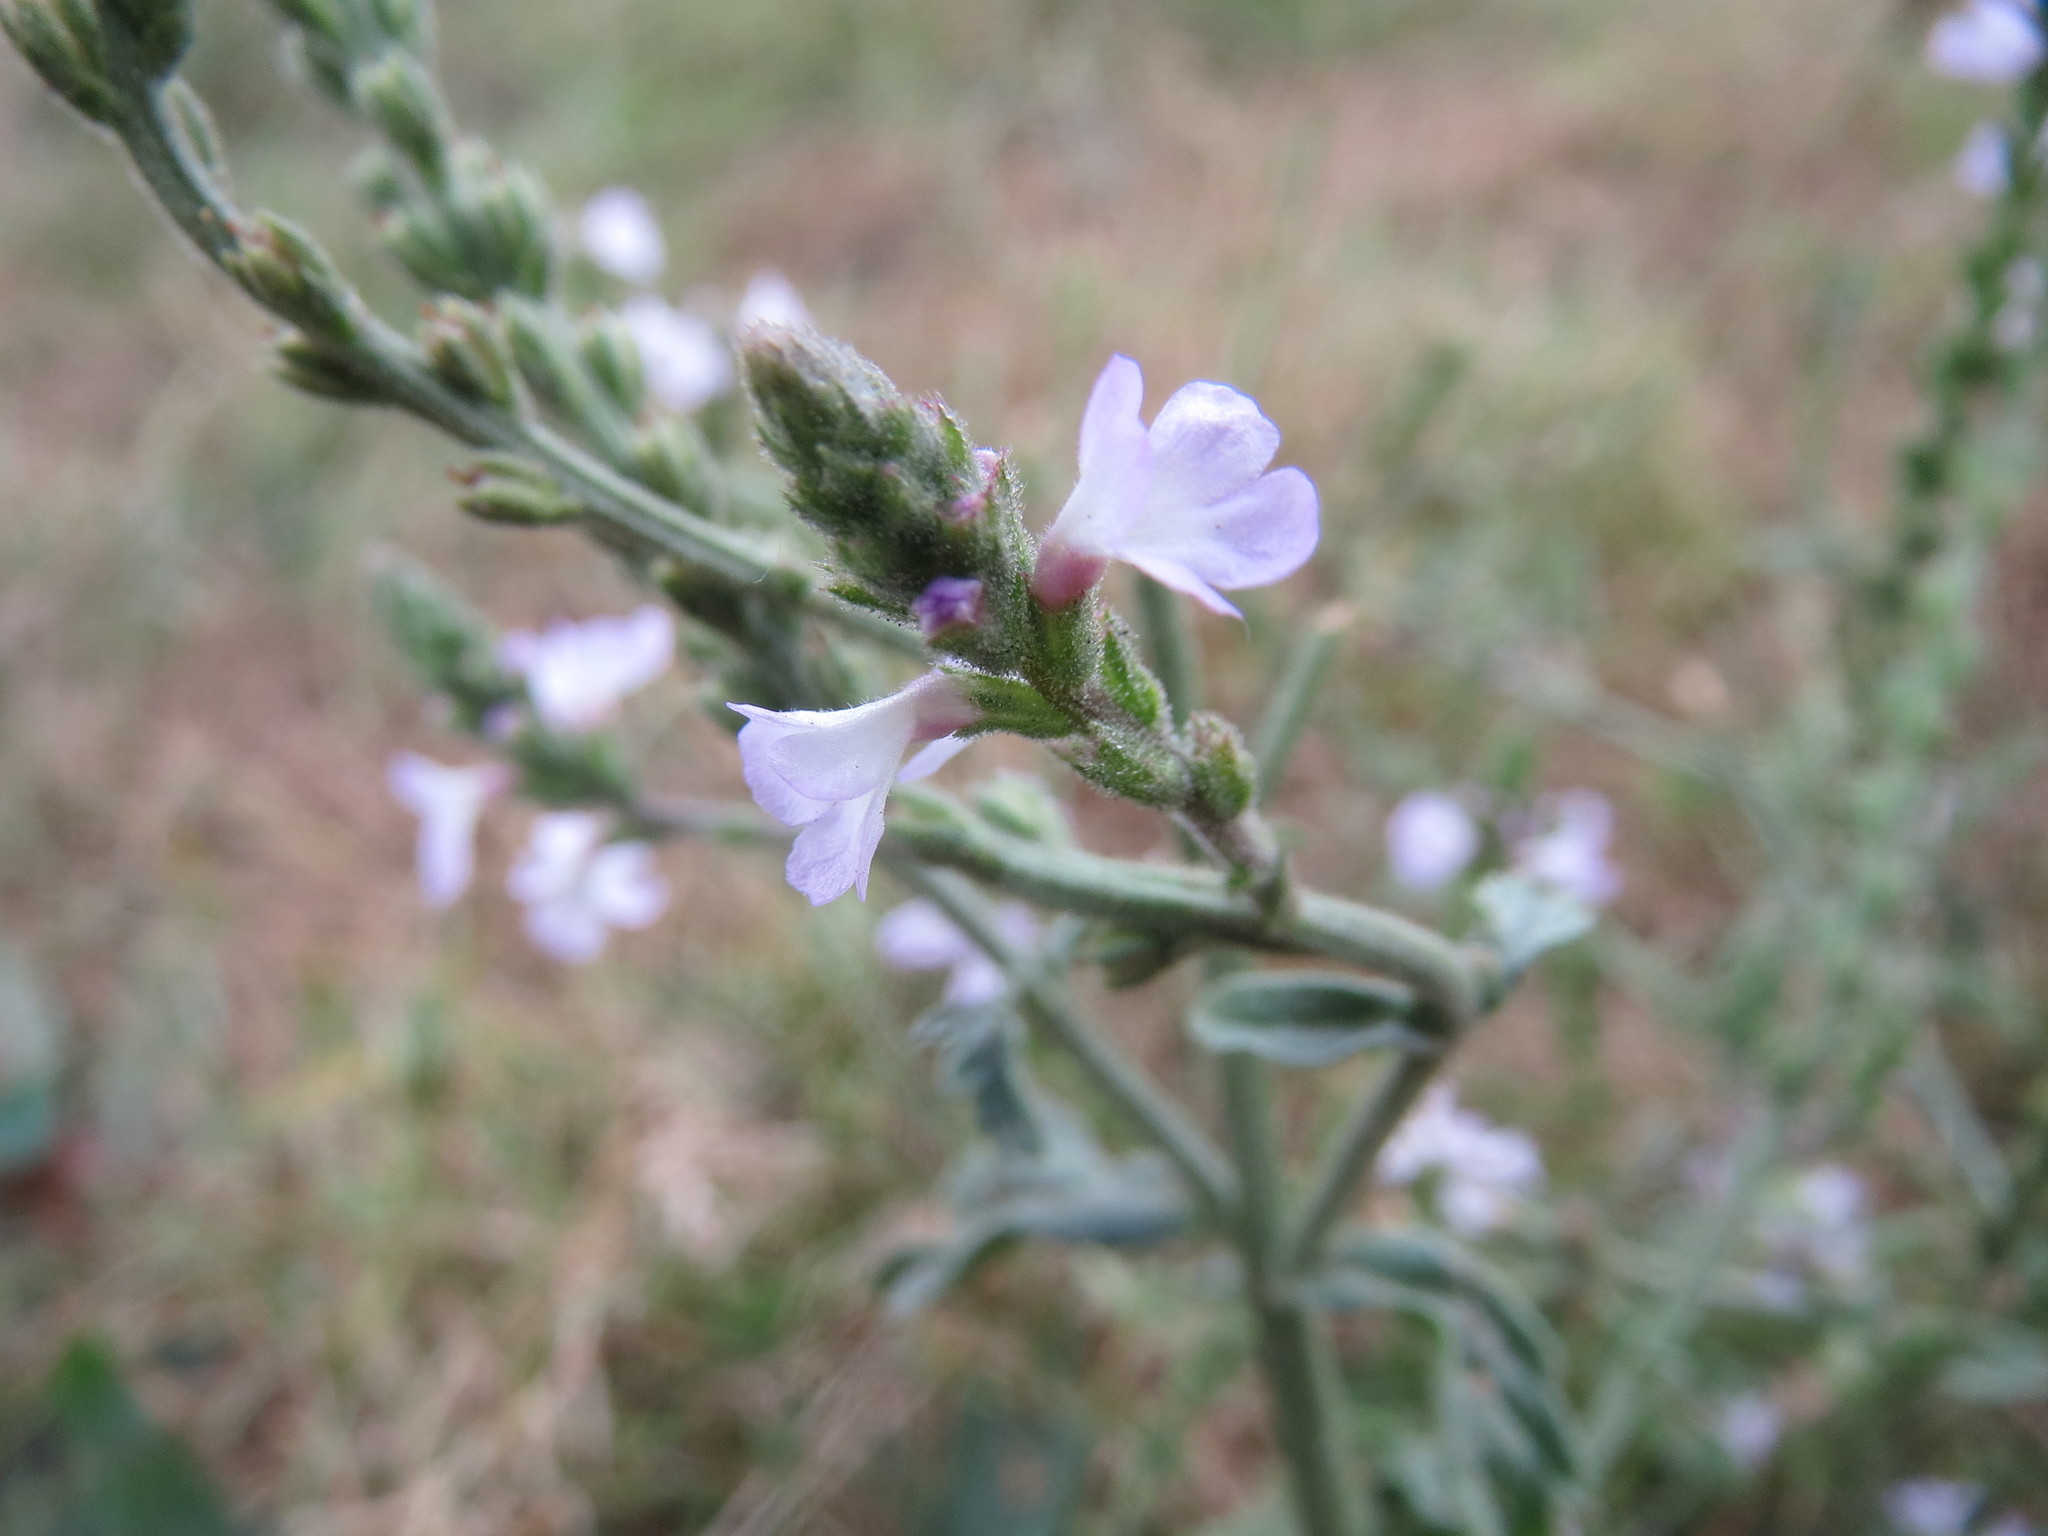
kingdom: Plantae
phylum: Tracheophyta
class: Magnoliopsida
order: Lamiales
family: Verbenaceae
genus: Verbena
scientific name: Verbena officinalis
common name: Vervain
